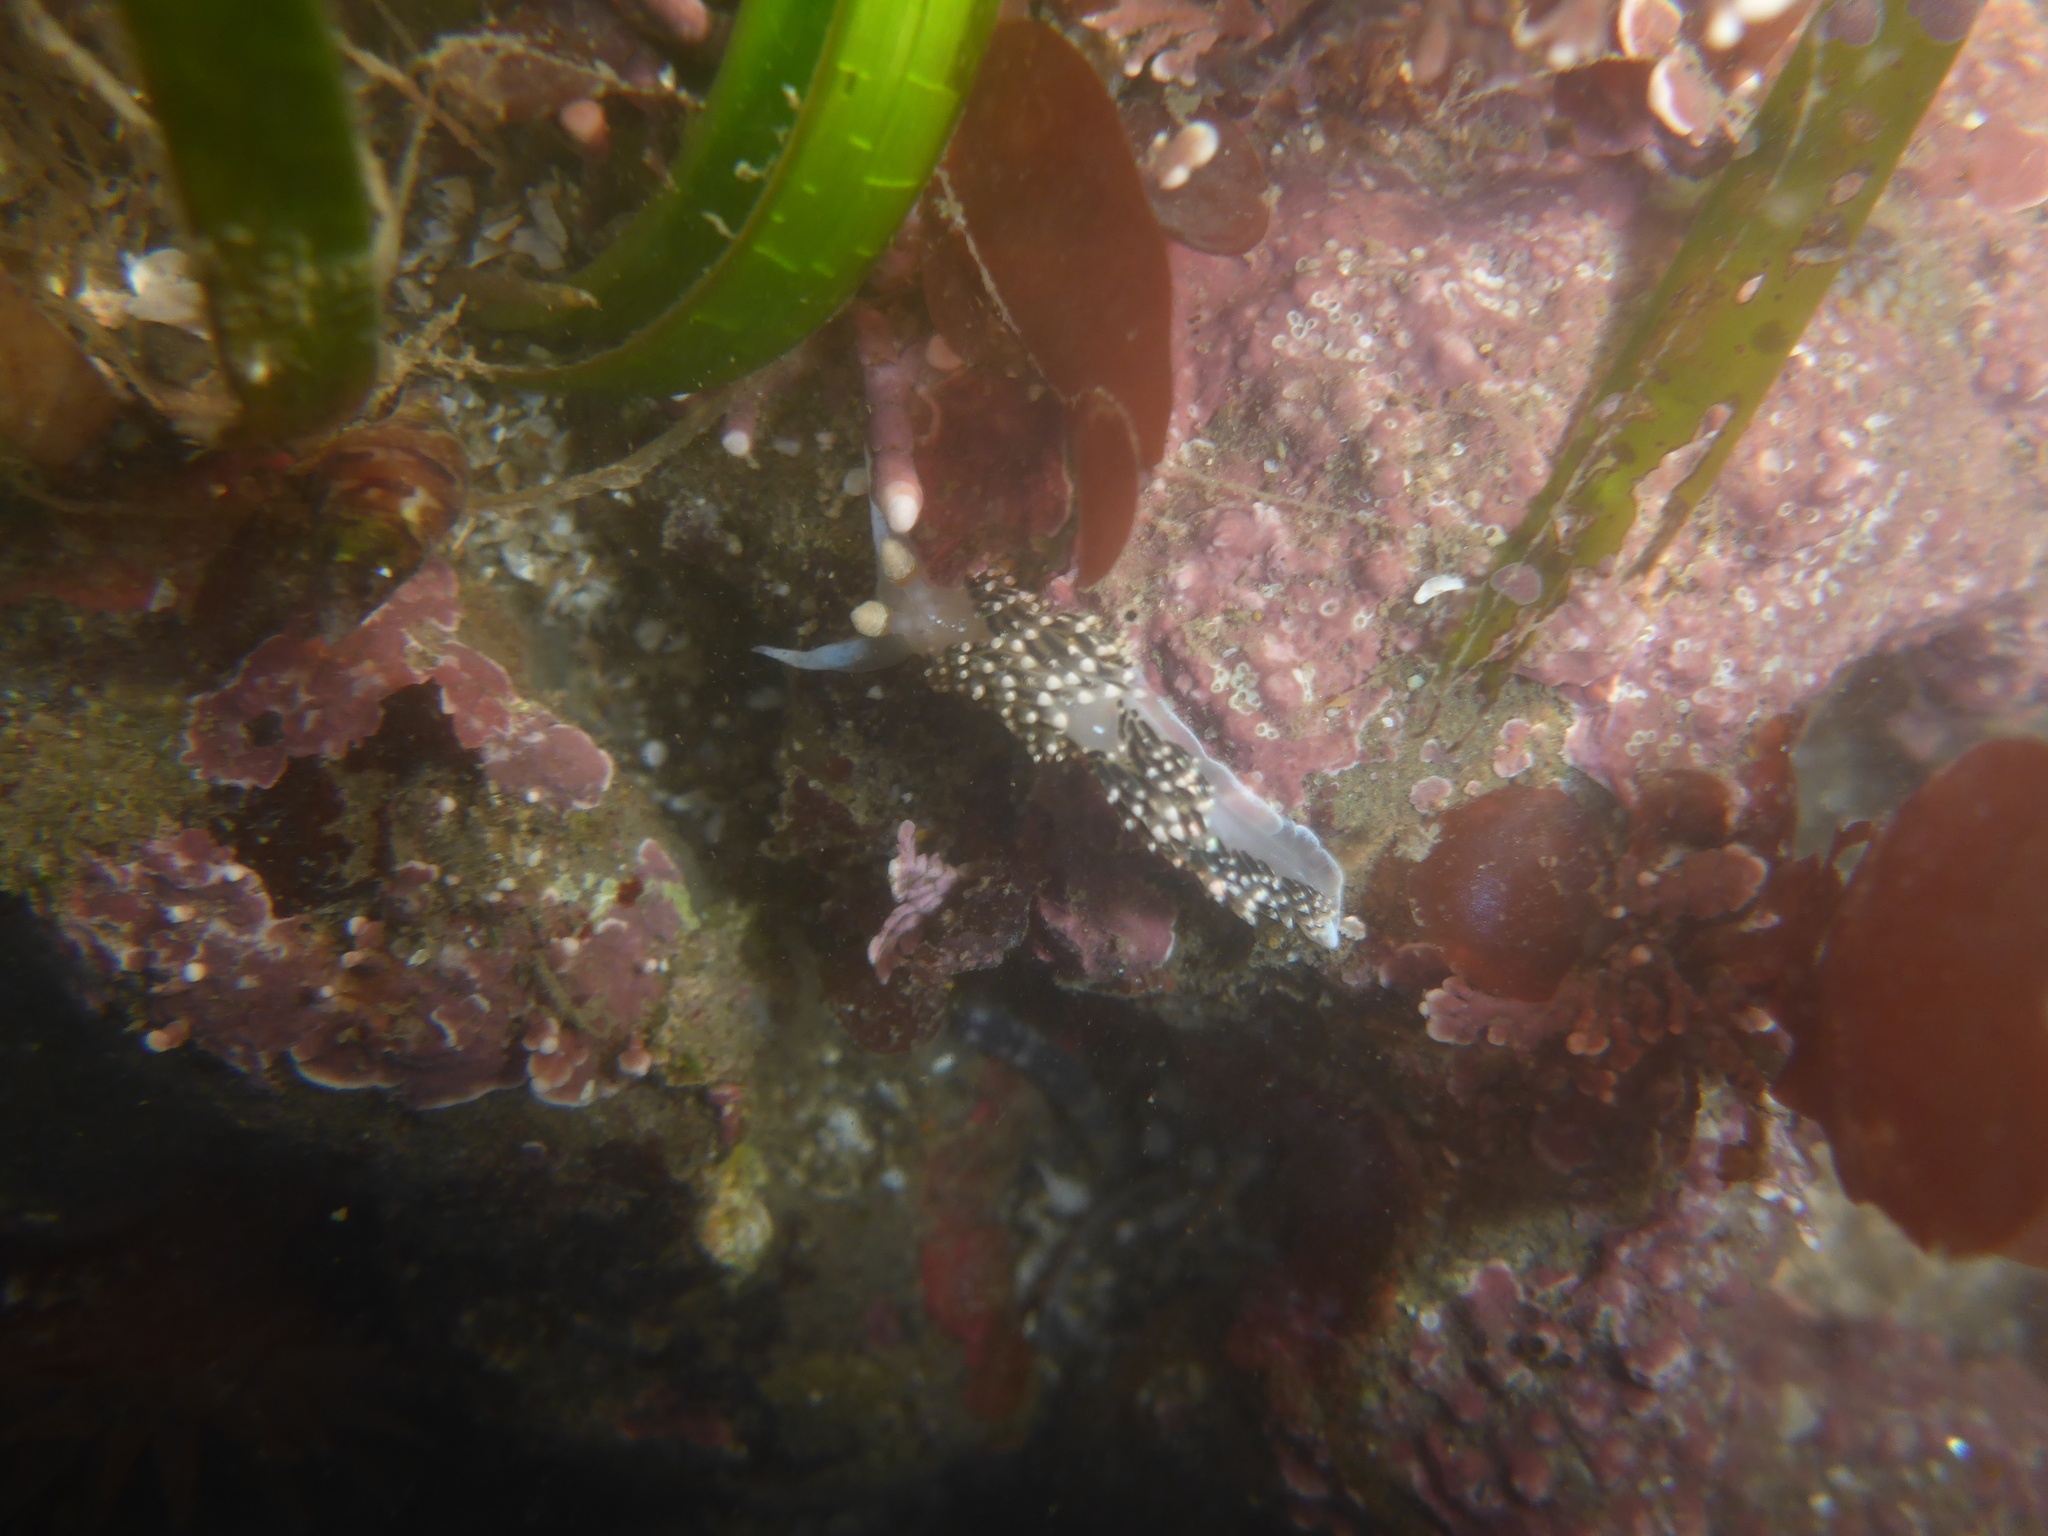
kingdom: Animalia
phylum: Mollusca
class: Gastropoda
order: Nudibranchia
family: Facelinidae
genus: Phidiana
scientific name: Phidiana hiltoni
